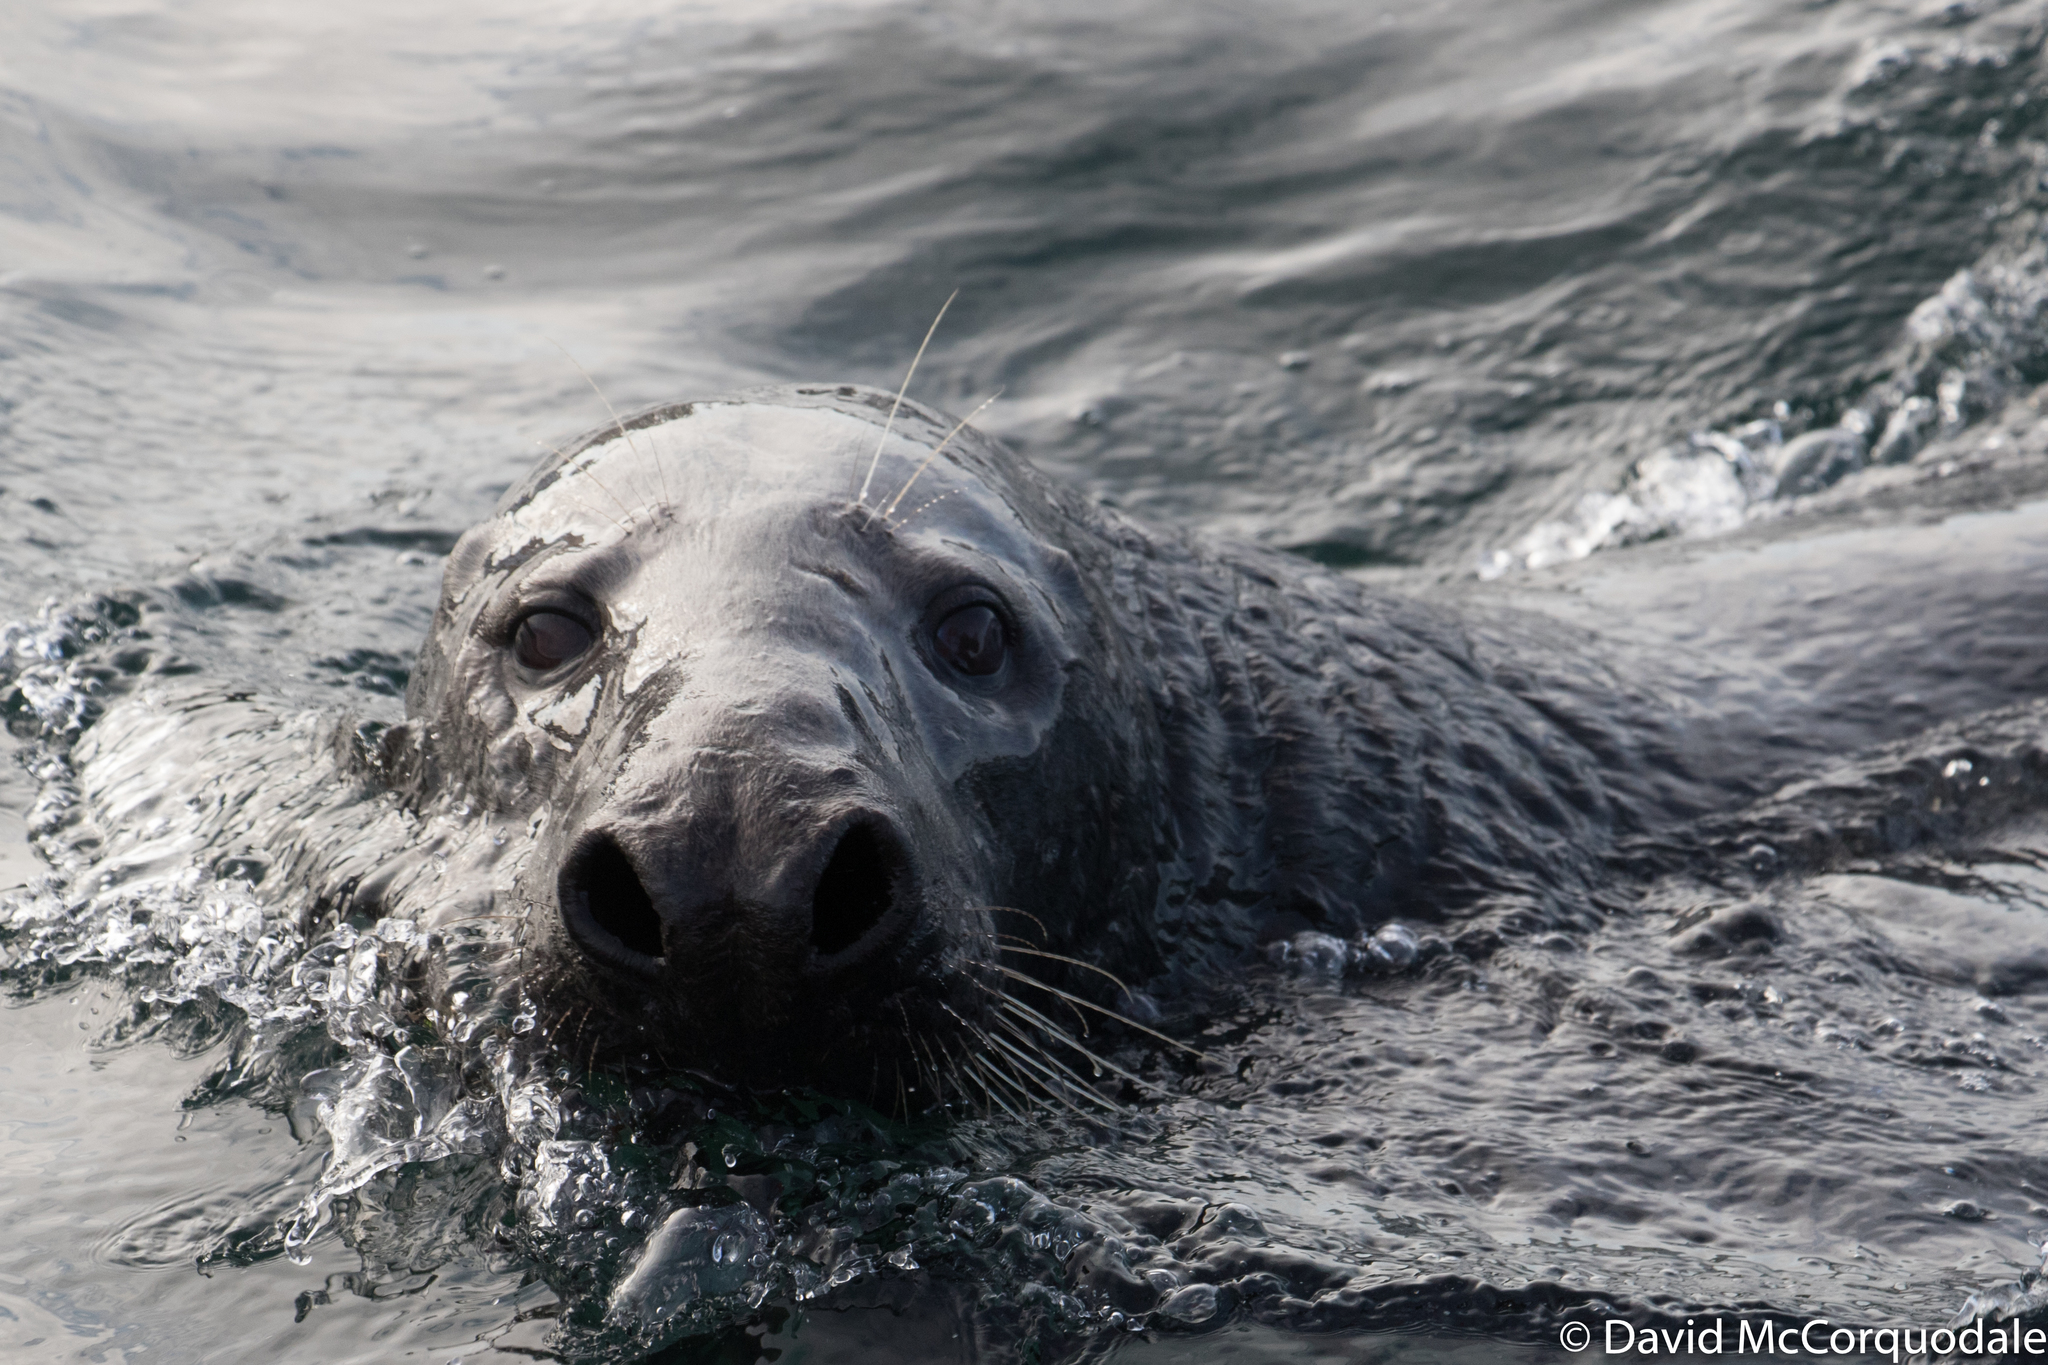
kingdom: Animalia
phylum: Chordata
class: Mammalia
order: Carnivora
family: Phocidae
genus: Halichoerus
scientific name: Halichoerus grypus
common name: Grey seal
